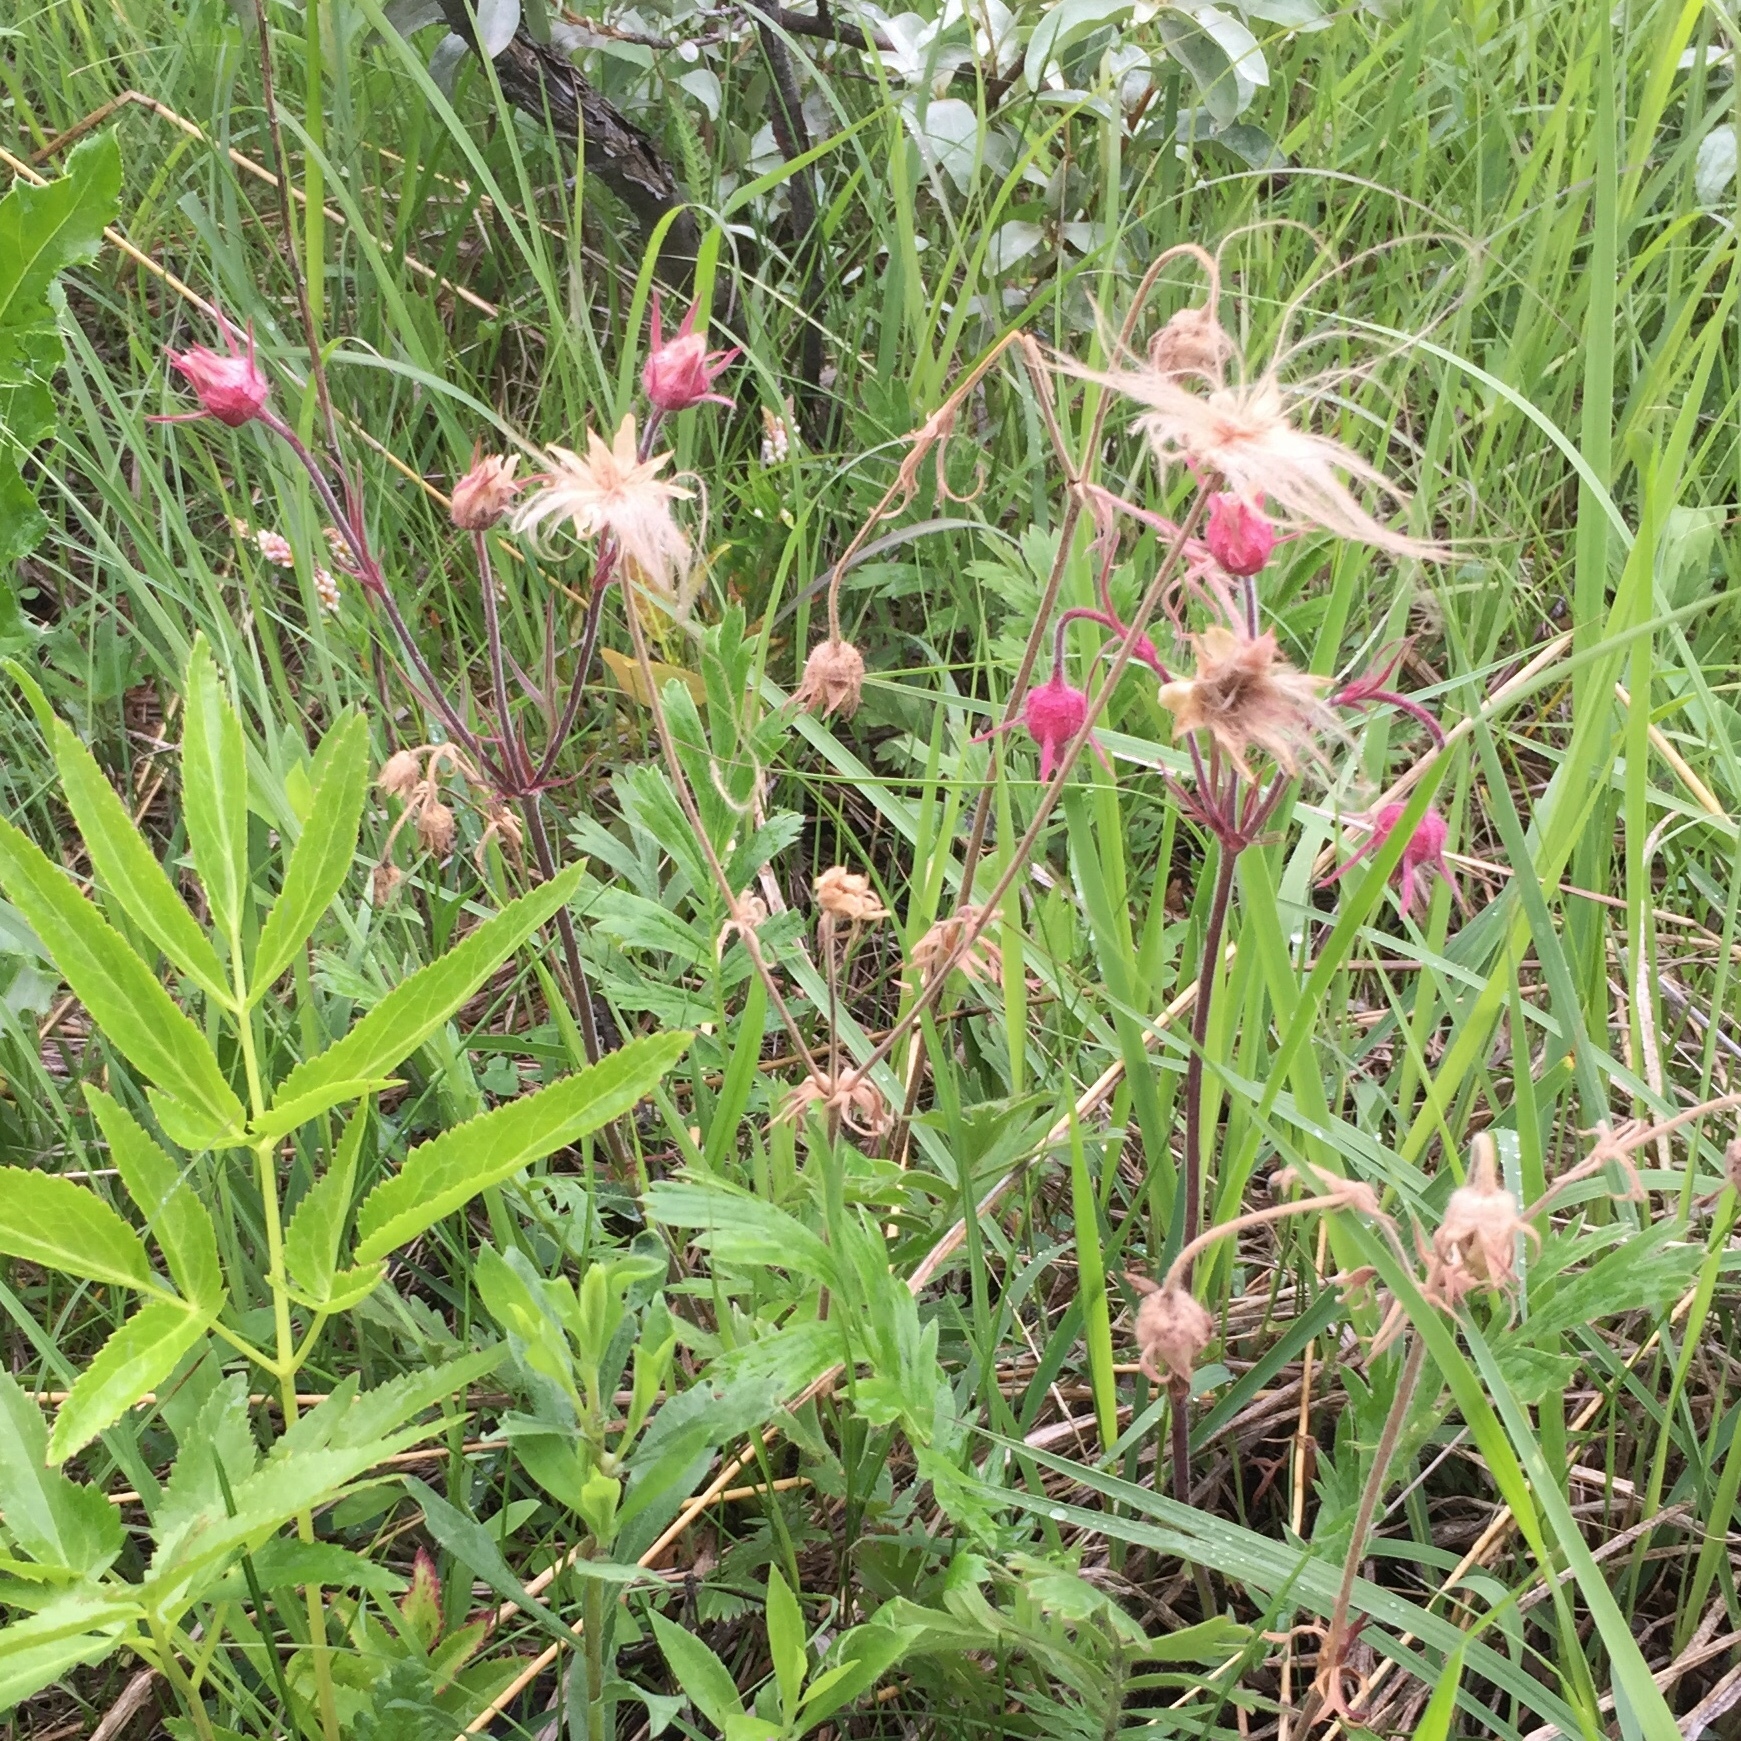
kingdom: Plantae
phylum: Tracheophyta
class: Magnoliopsida
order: Rosales
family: Rosaceae
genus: Geum
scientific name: Geum triflorum
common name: Old man's whiskers
